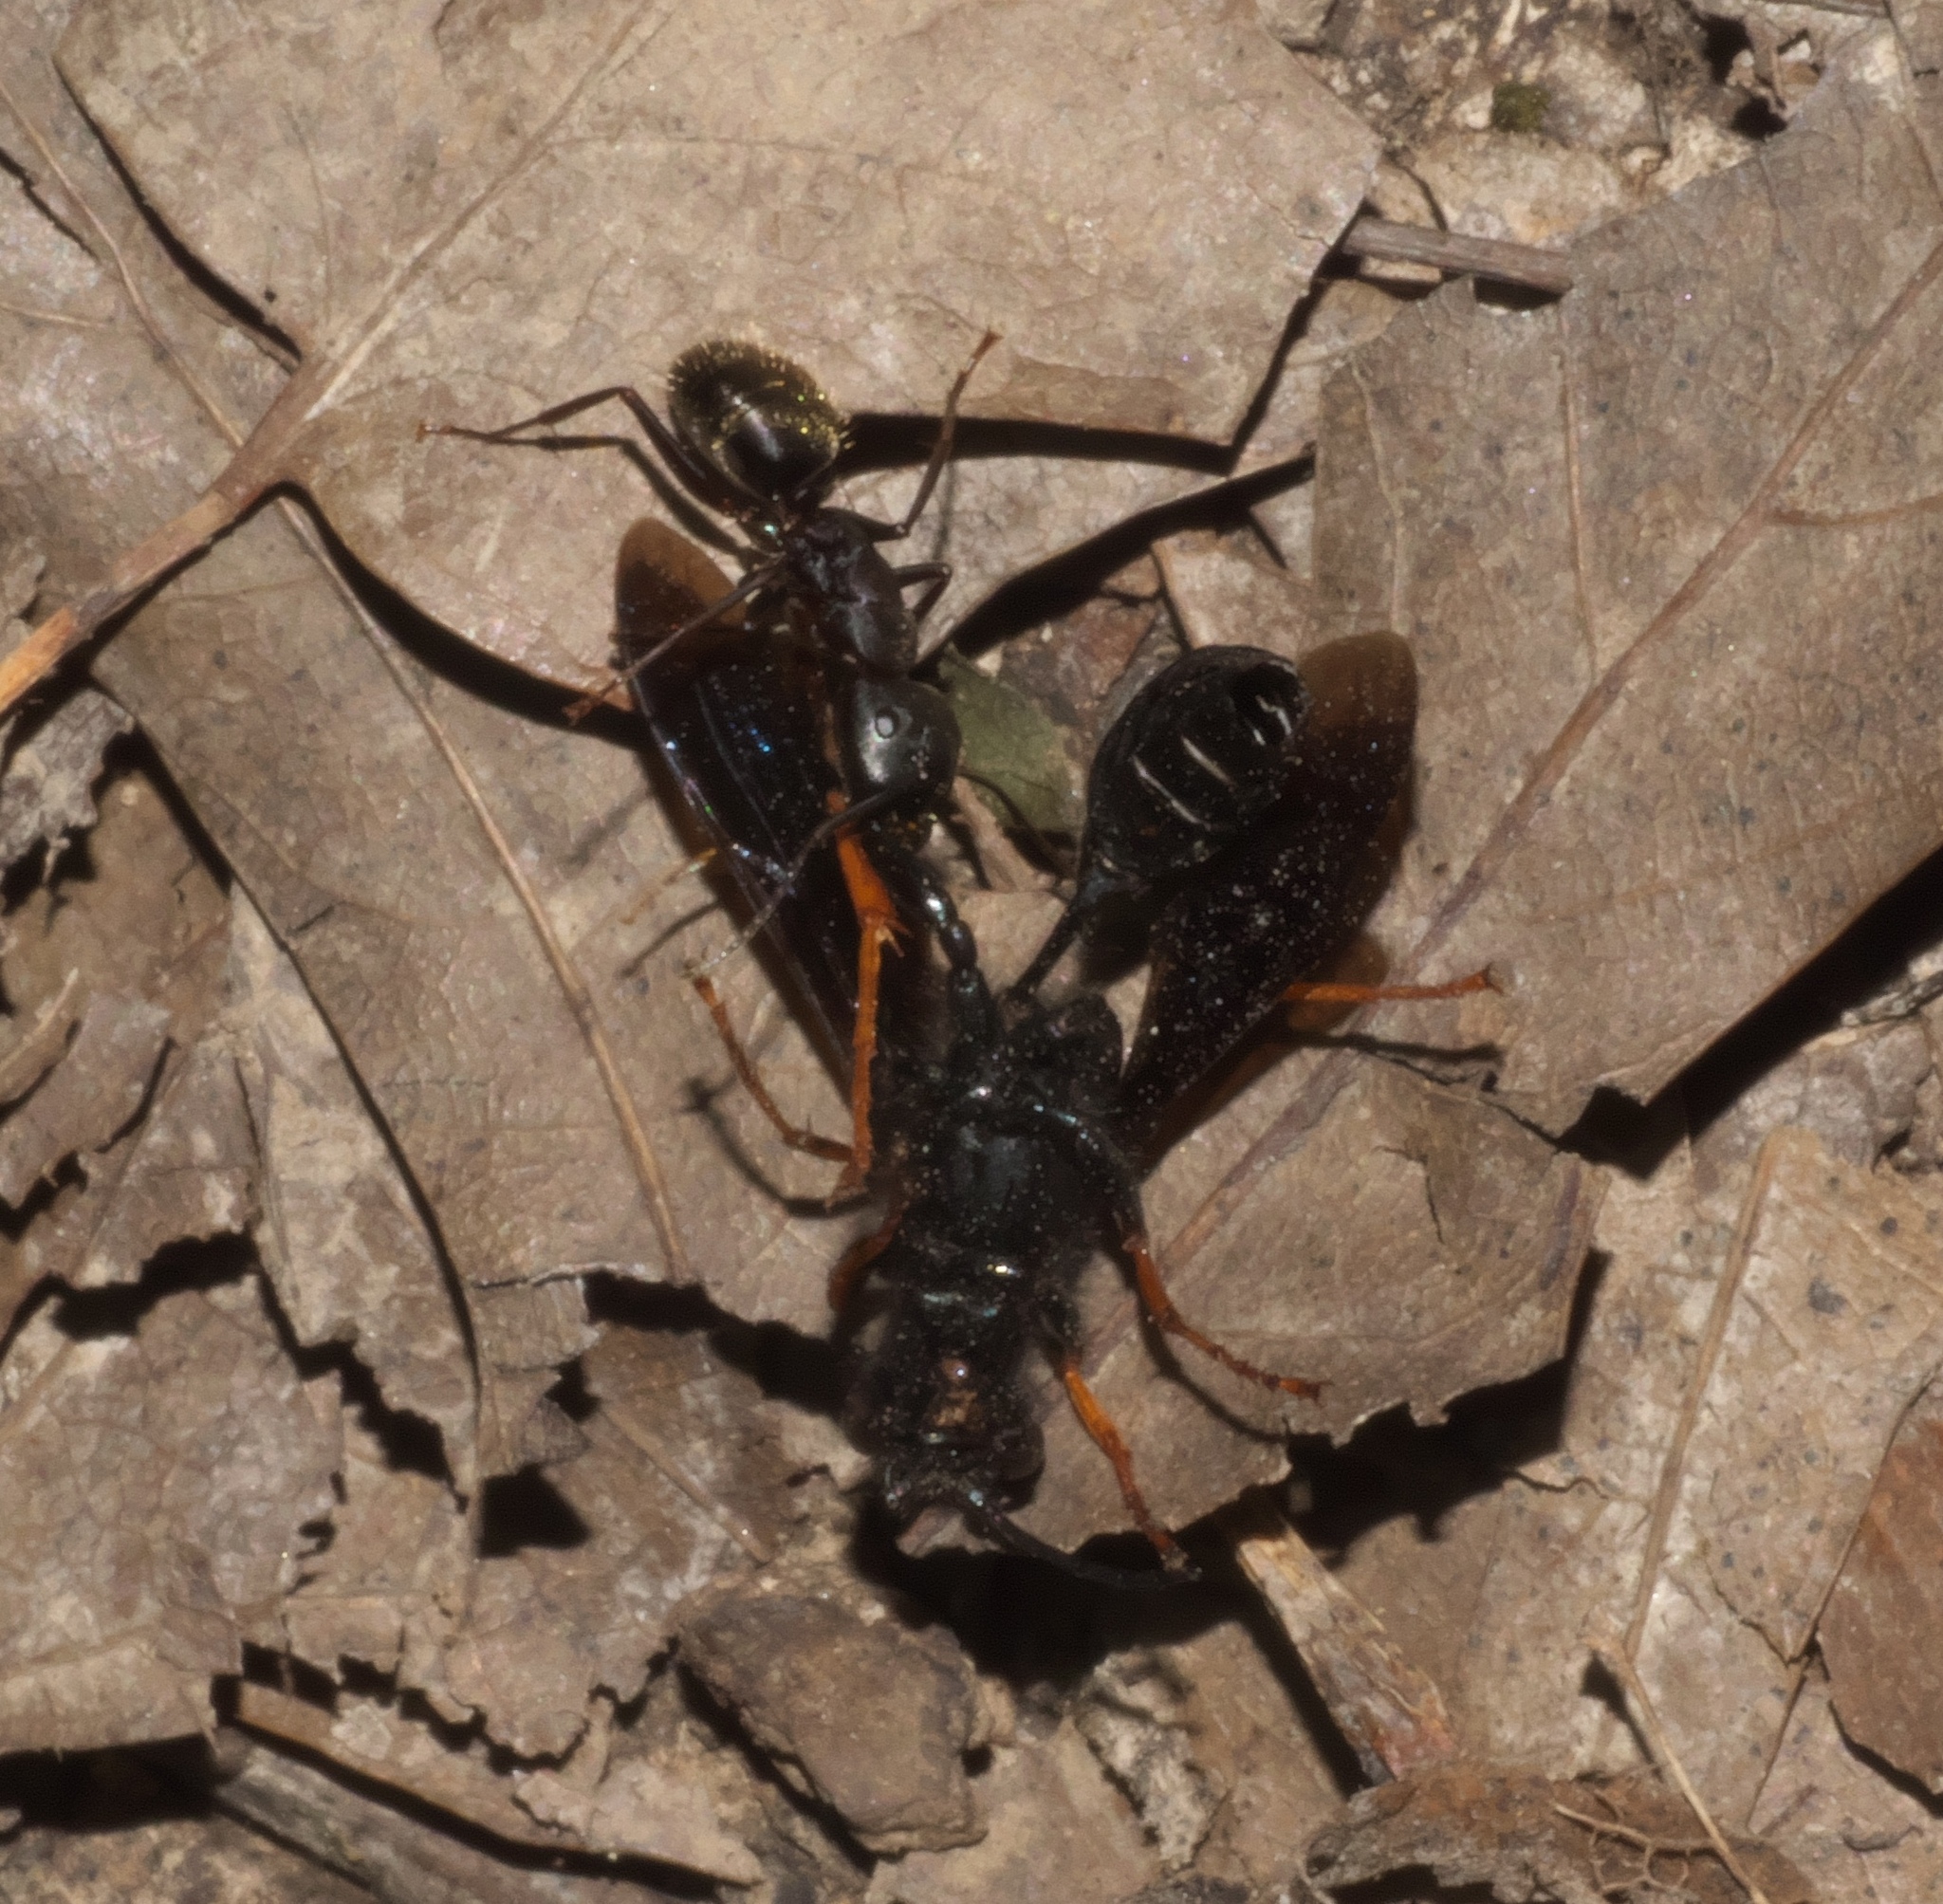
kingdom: Animalia
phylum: Arthropoda
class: Insecta
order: Hymenoptera
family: Formicidae
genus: Camponotus
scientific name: Camponotus pennsylvanicus
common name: Black carpenter ant
